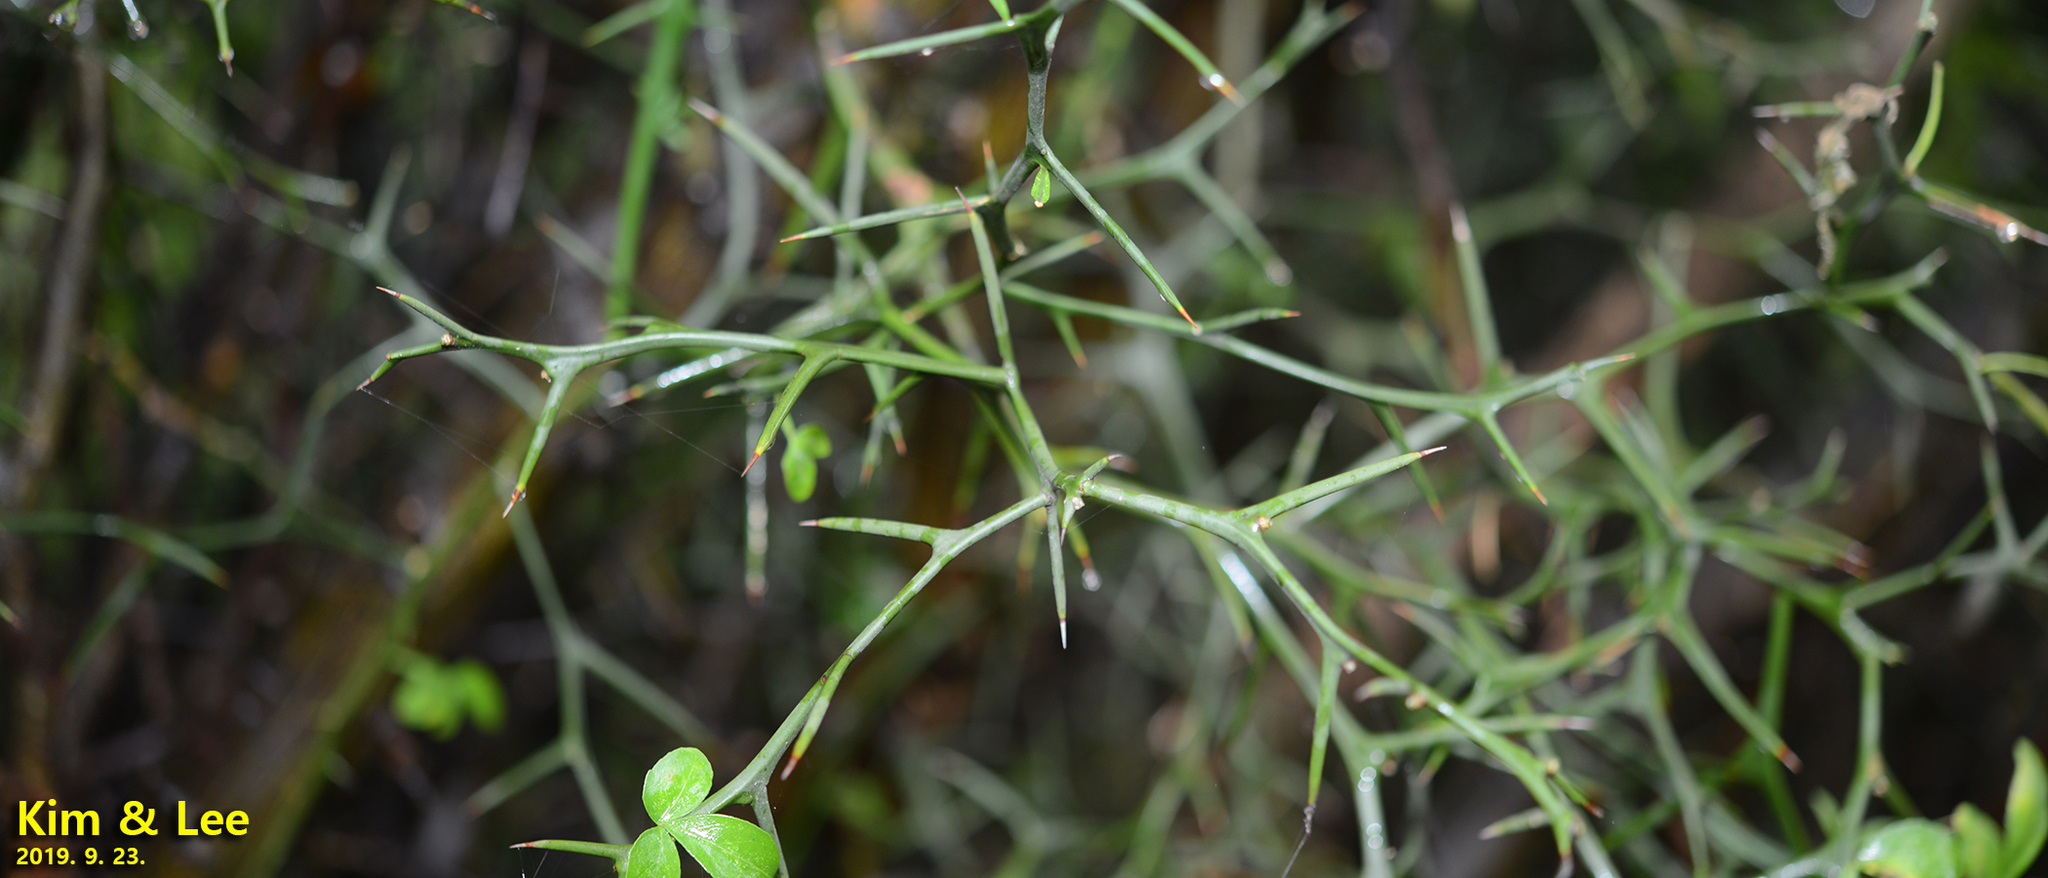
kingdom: Plantae
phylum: Tracheophyta
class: Magnoliopsida
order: Sapindales
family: Rutaceae
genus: Citrus
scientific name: Citrus trifoliata
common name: Japanese bitter-orange
